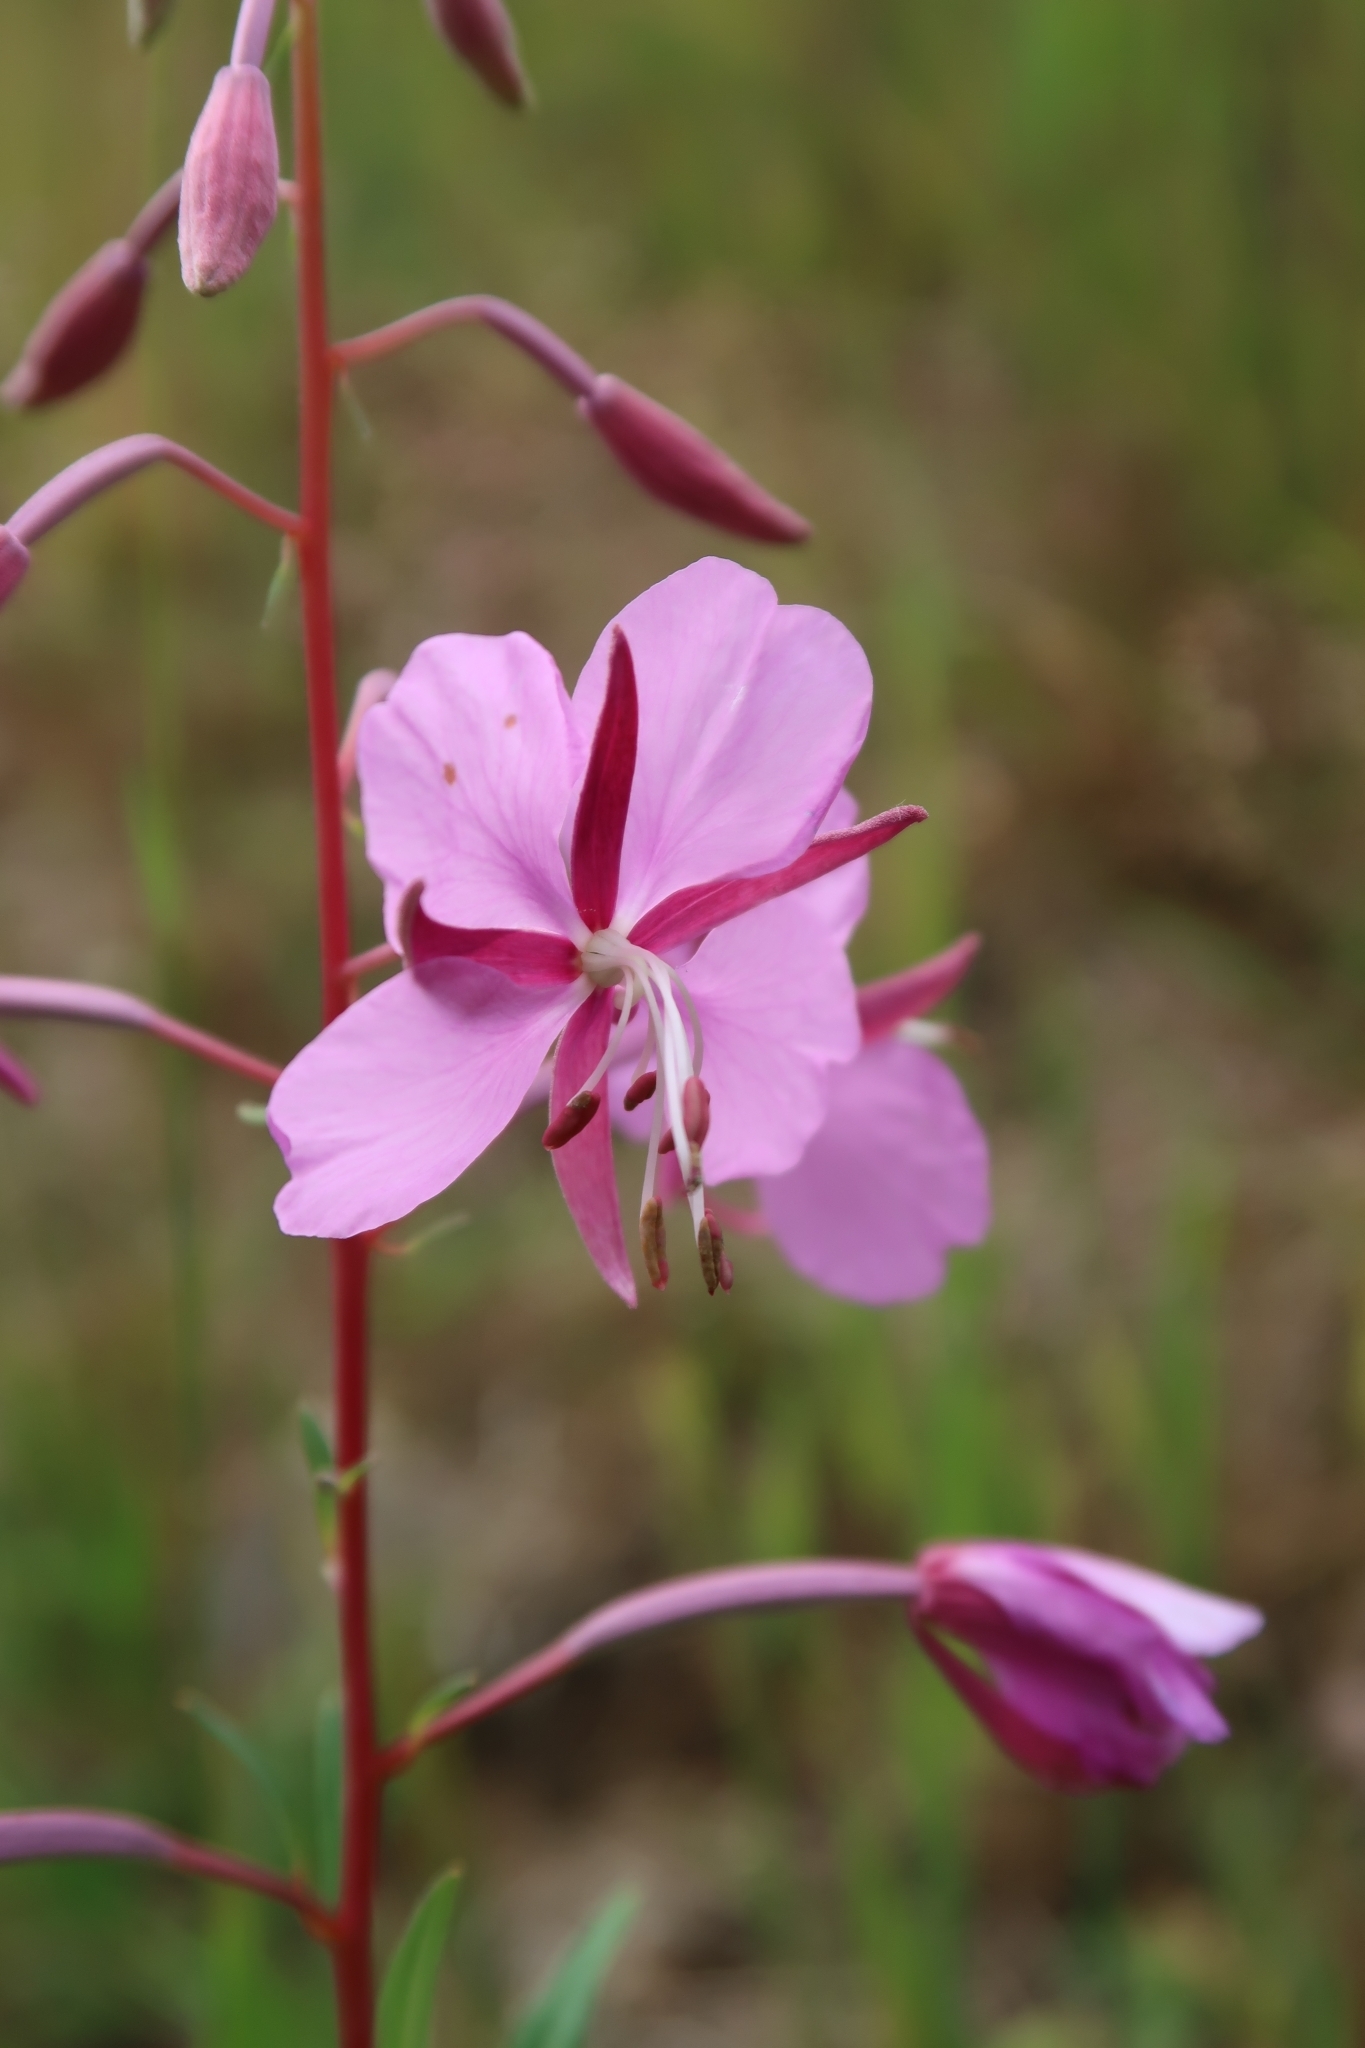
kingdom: Plantae
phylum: Tracheophyta
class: Magnoliopsida
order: Myrtales
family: Onagraceae
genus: Chamaenerion
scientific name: Chamaenerion angustifolium
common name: Fireweed
